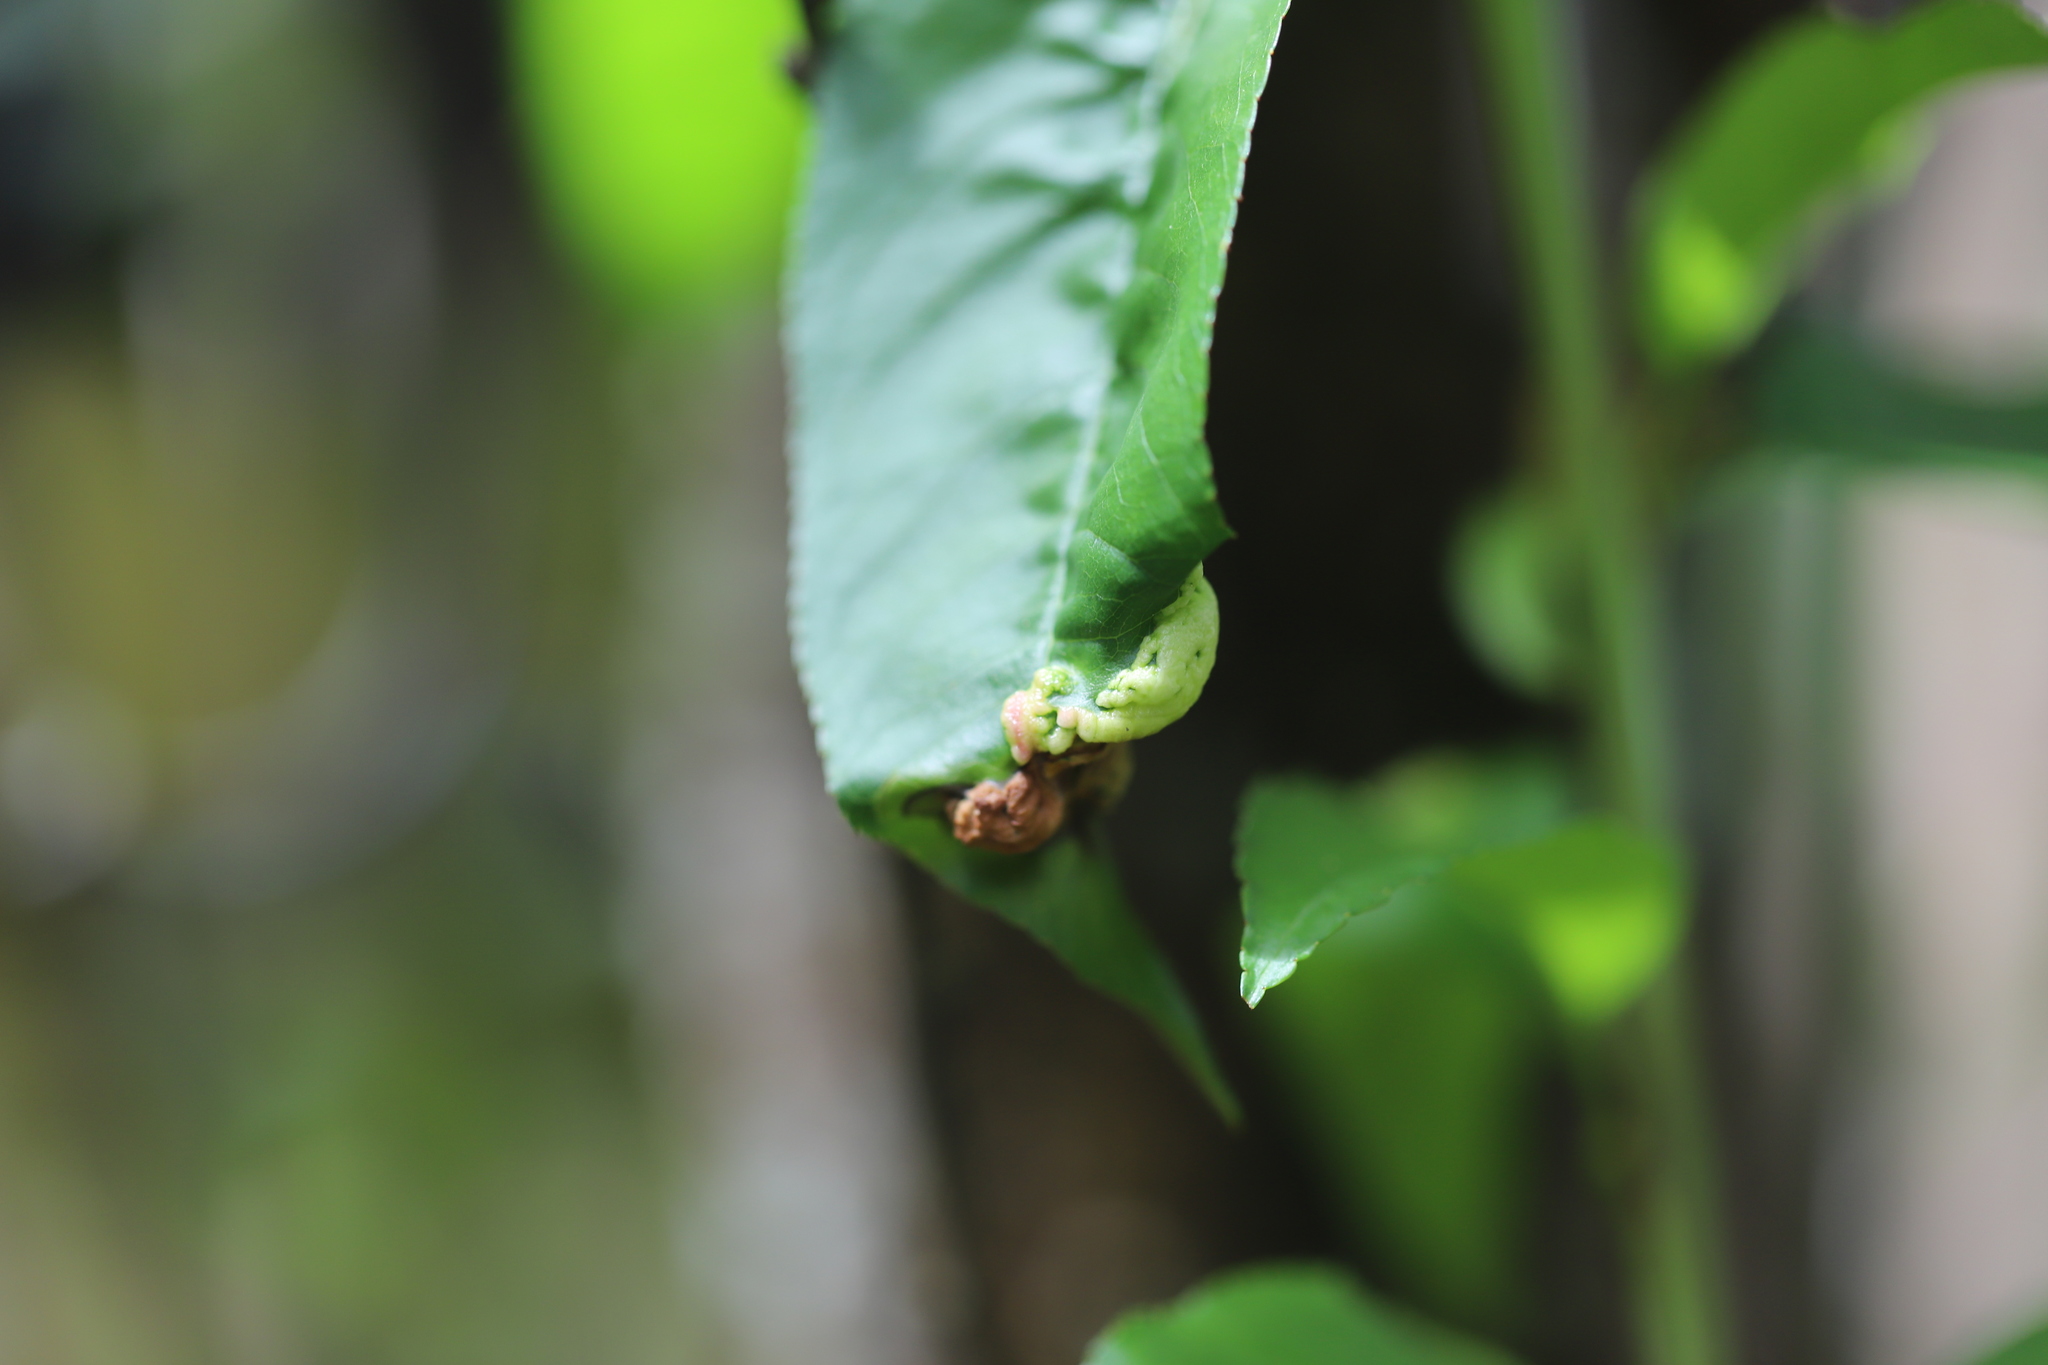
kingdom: Fungi
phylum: Ascomycota
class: Taphrinomycetes
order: Taphrinales
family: Taphrinaceae
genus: Taphrina
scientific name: Taphrina deformans
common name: Peach leaf curl
